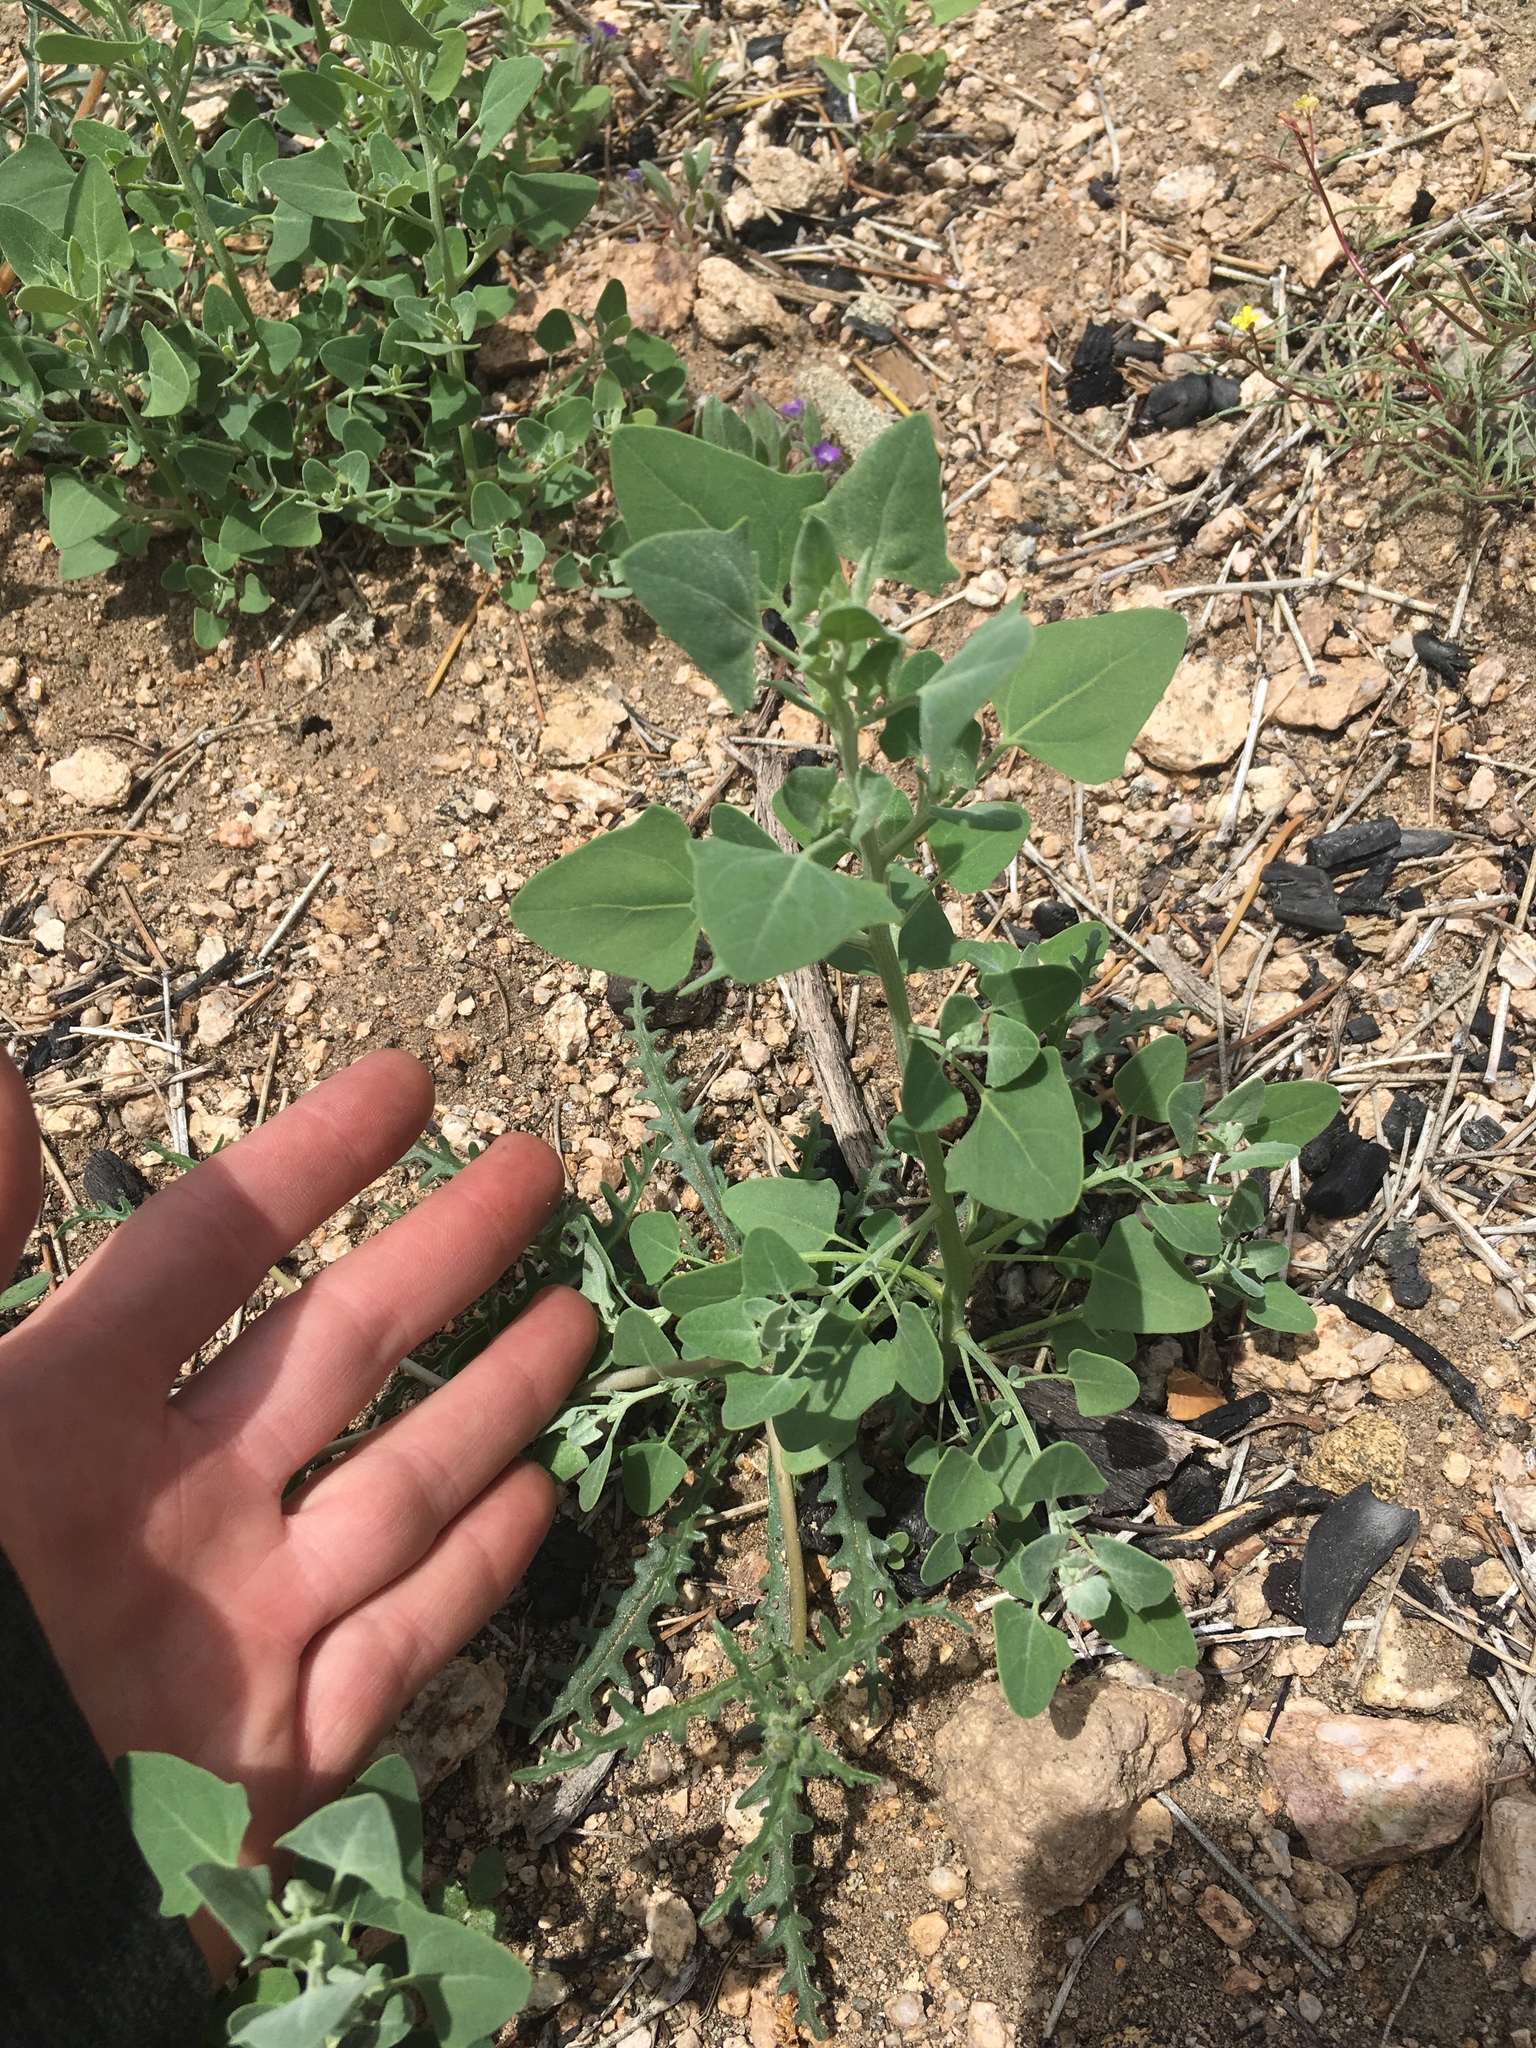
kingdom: Plantae
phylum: Tracheophyta
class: Magnoliopsida
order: Caryophyllales
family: Amaranthaceae
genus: Chenopodium
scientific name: Chenopodium fremontii
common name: Fremont's goosefoot
